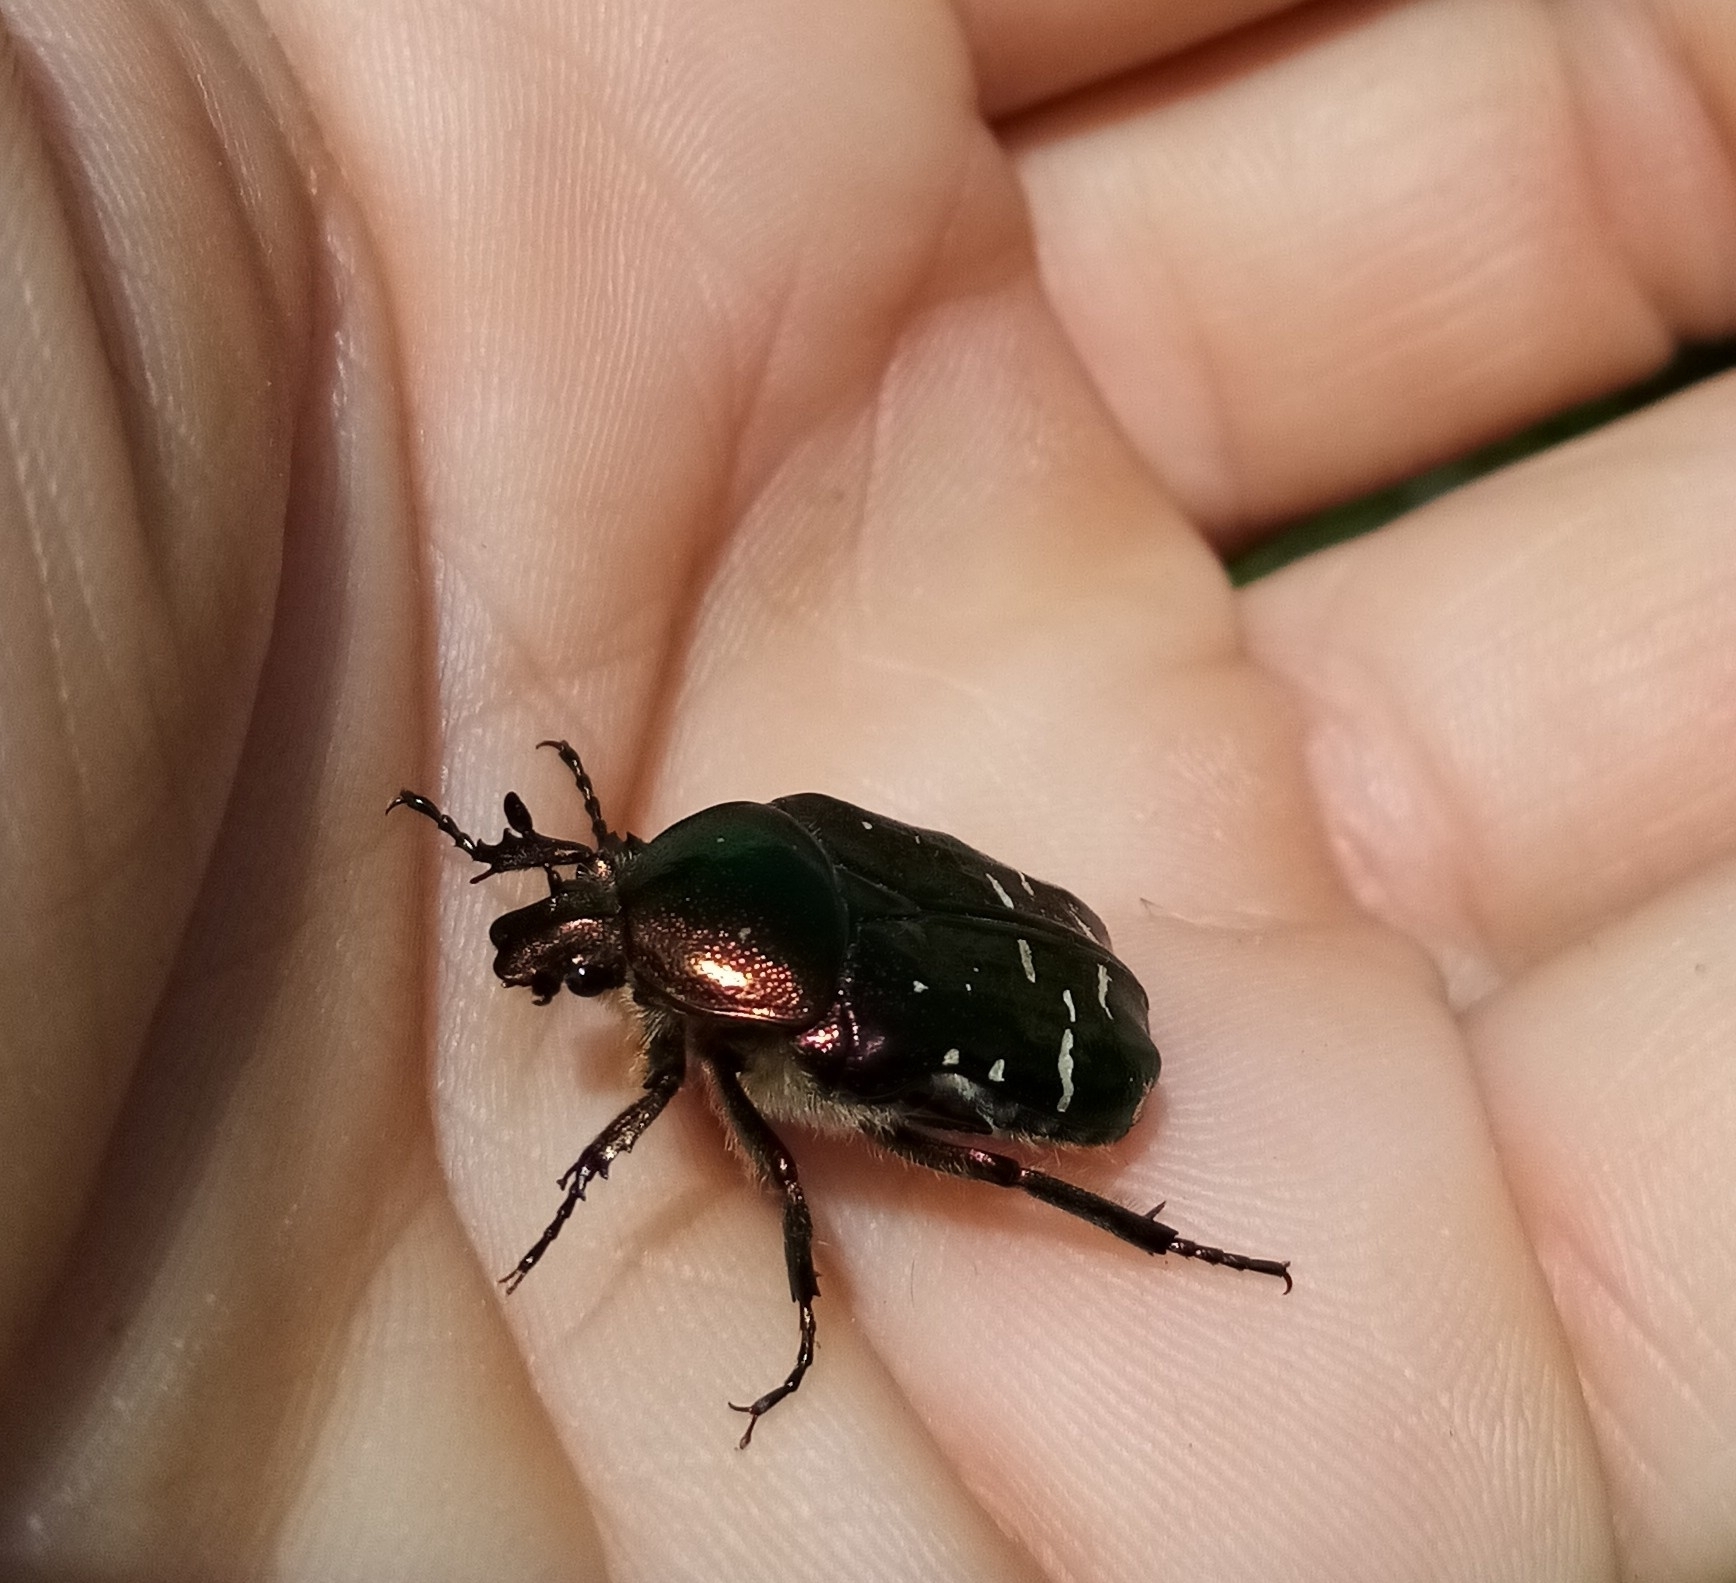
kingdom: Animalia
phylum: Arthropoda
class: Insecta
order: Coleoptera
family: Scarabaeidae
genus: Cetonia
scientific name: Cetonia aurata
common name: Rose chafer
